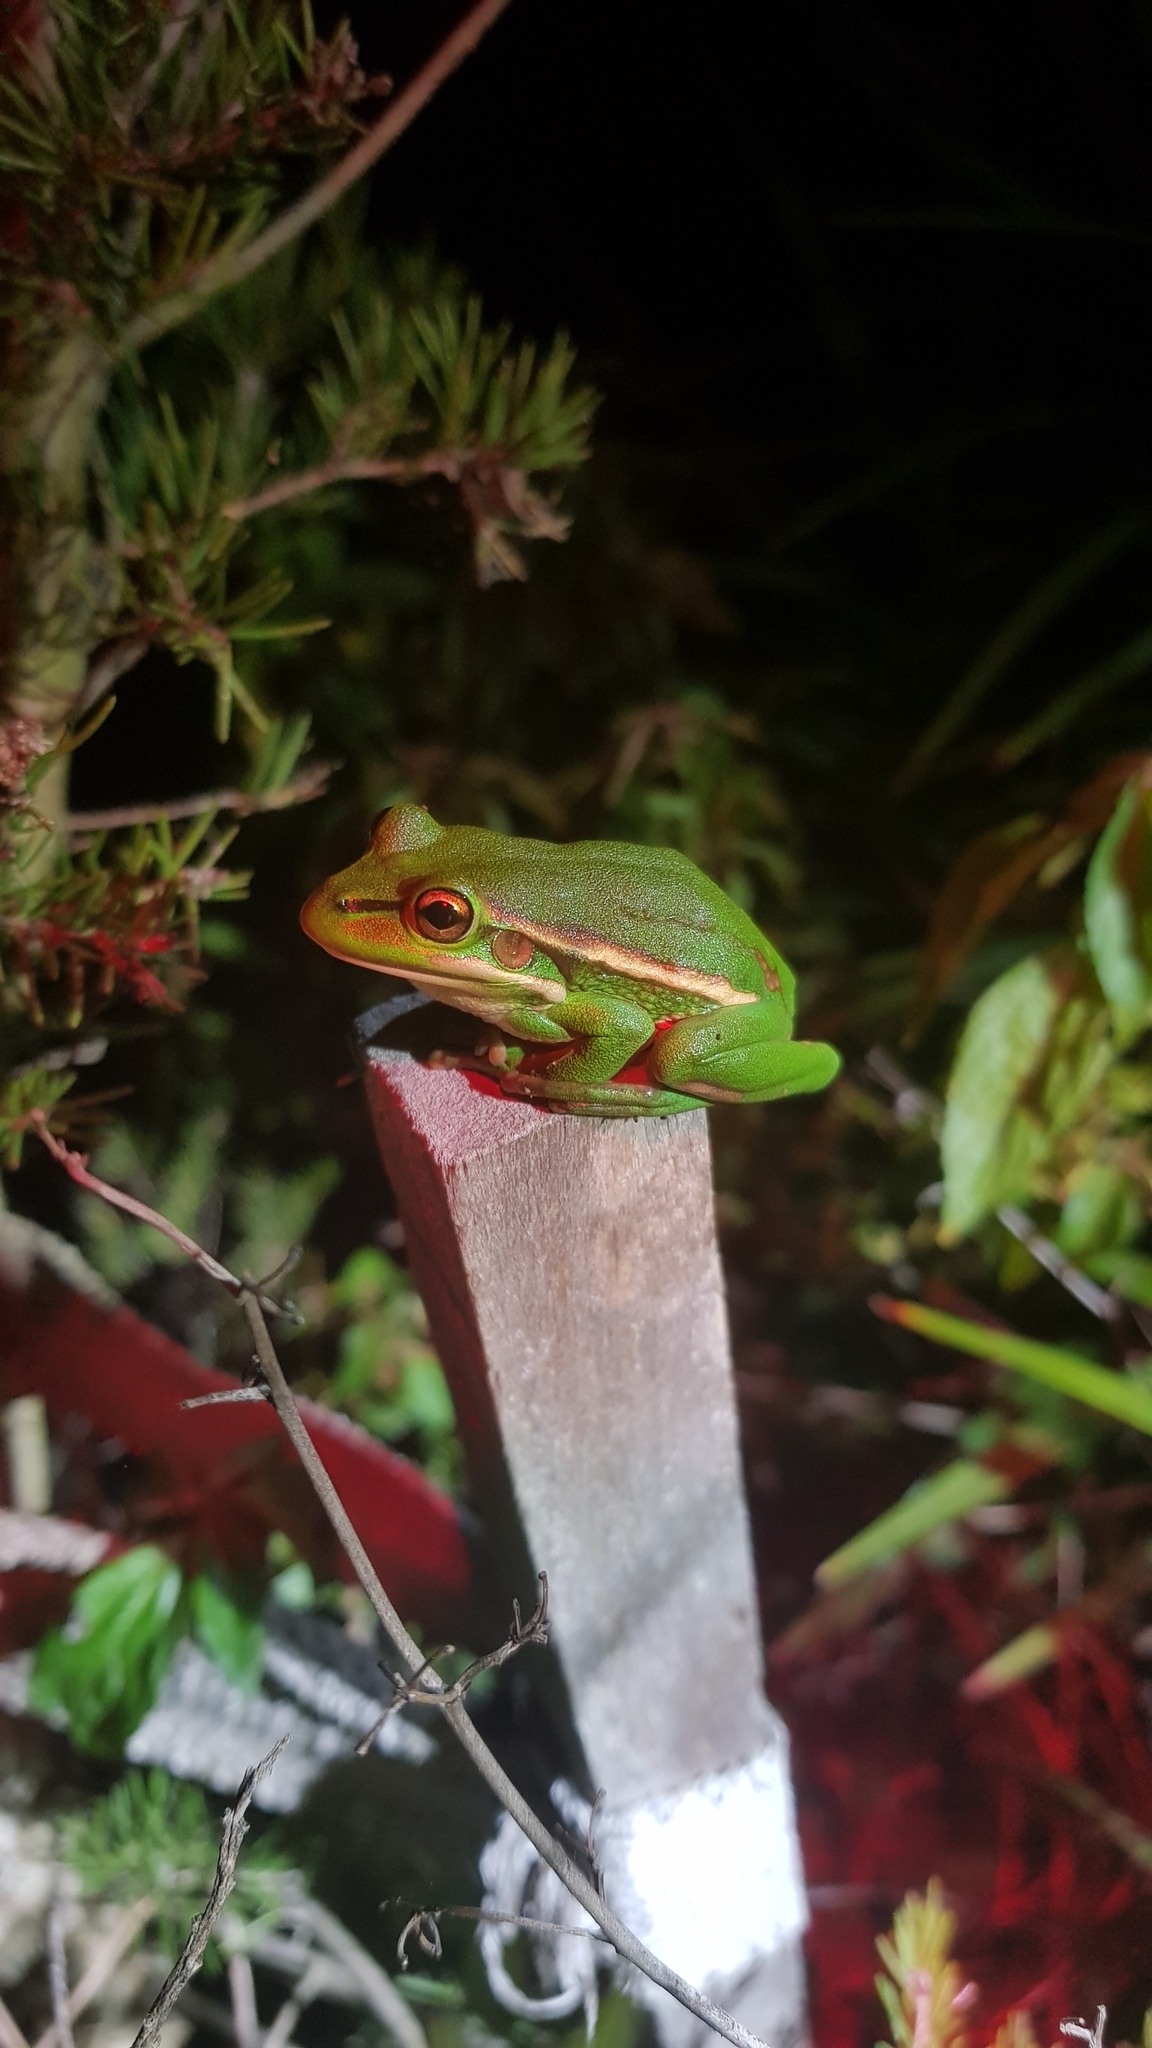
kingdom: Animalia
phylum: Chordata
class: Amphibia
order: Anura
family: Pelodryadidae
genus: Ranoidea
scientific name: Ranoidea aurea
